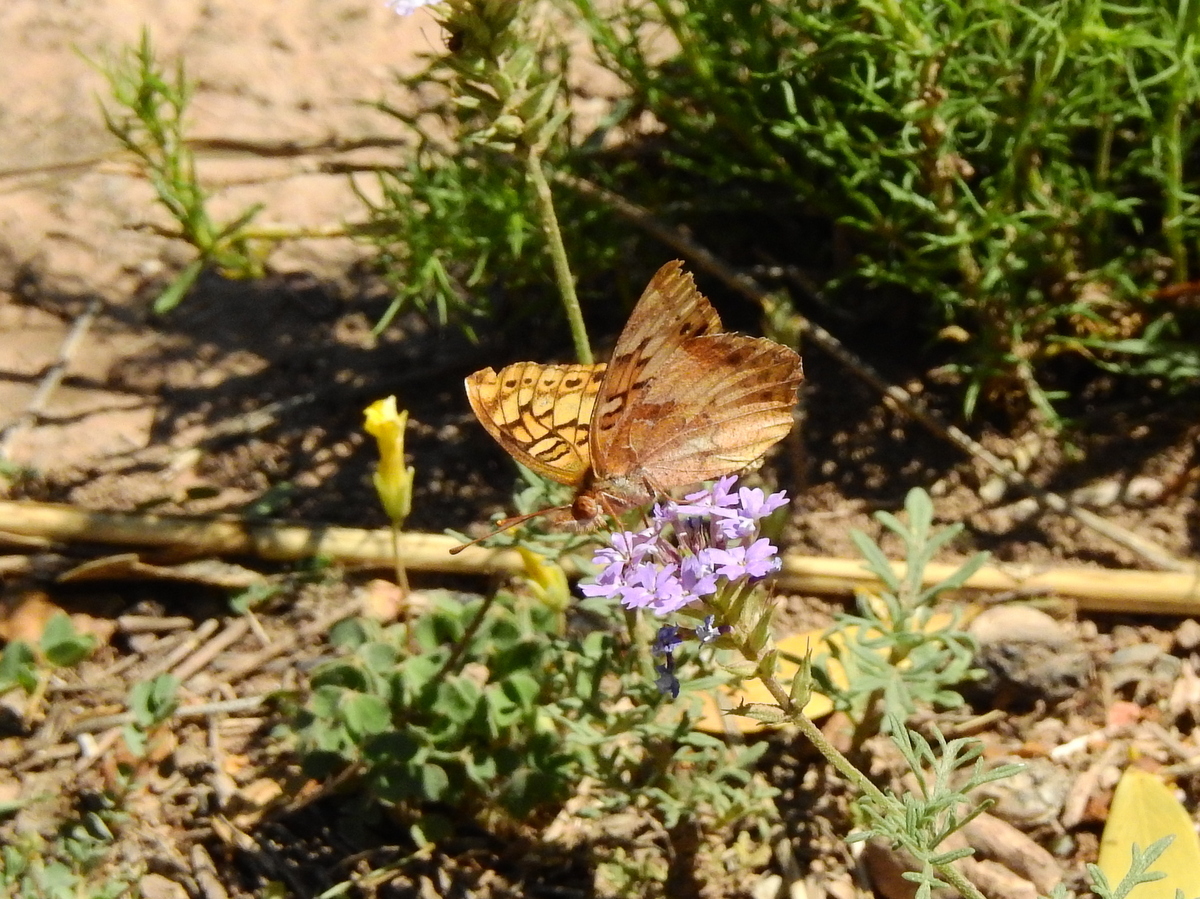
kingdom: Animalia
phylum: Arthropoda
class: Insecta
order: Lepidoptera
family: Nymphalidae
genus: Euptoieta
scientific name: Euptoieta hortensia
